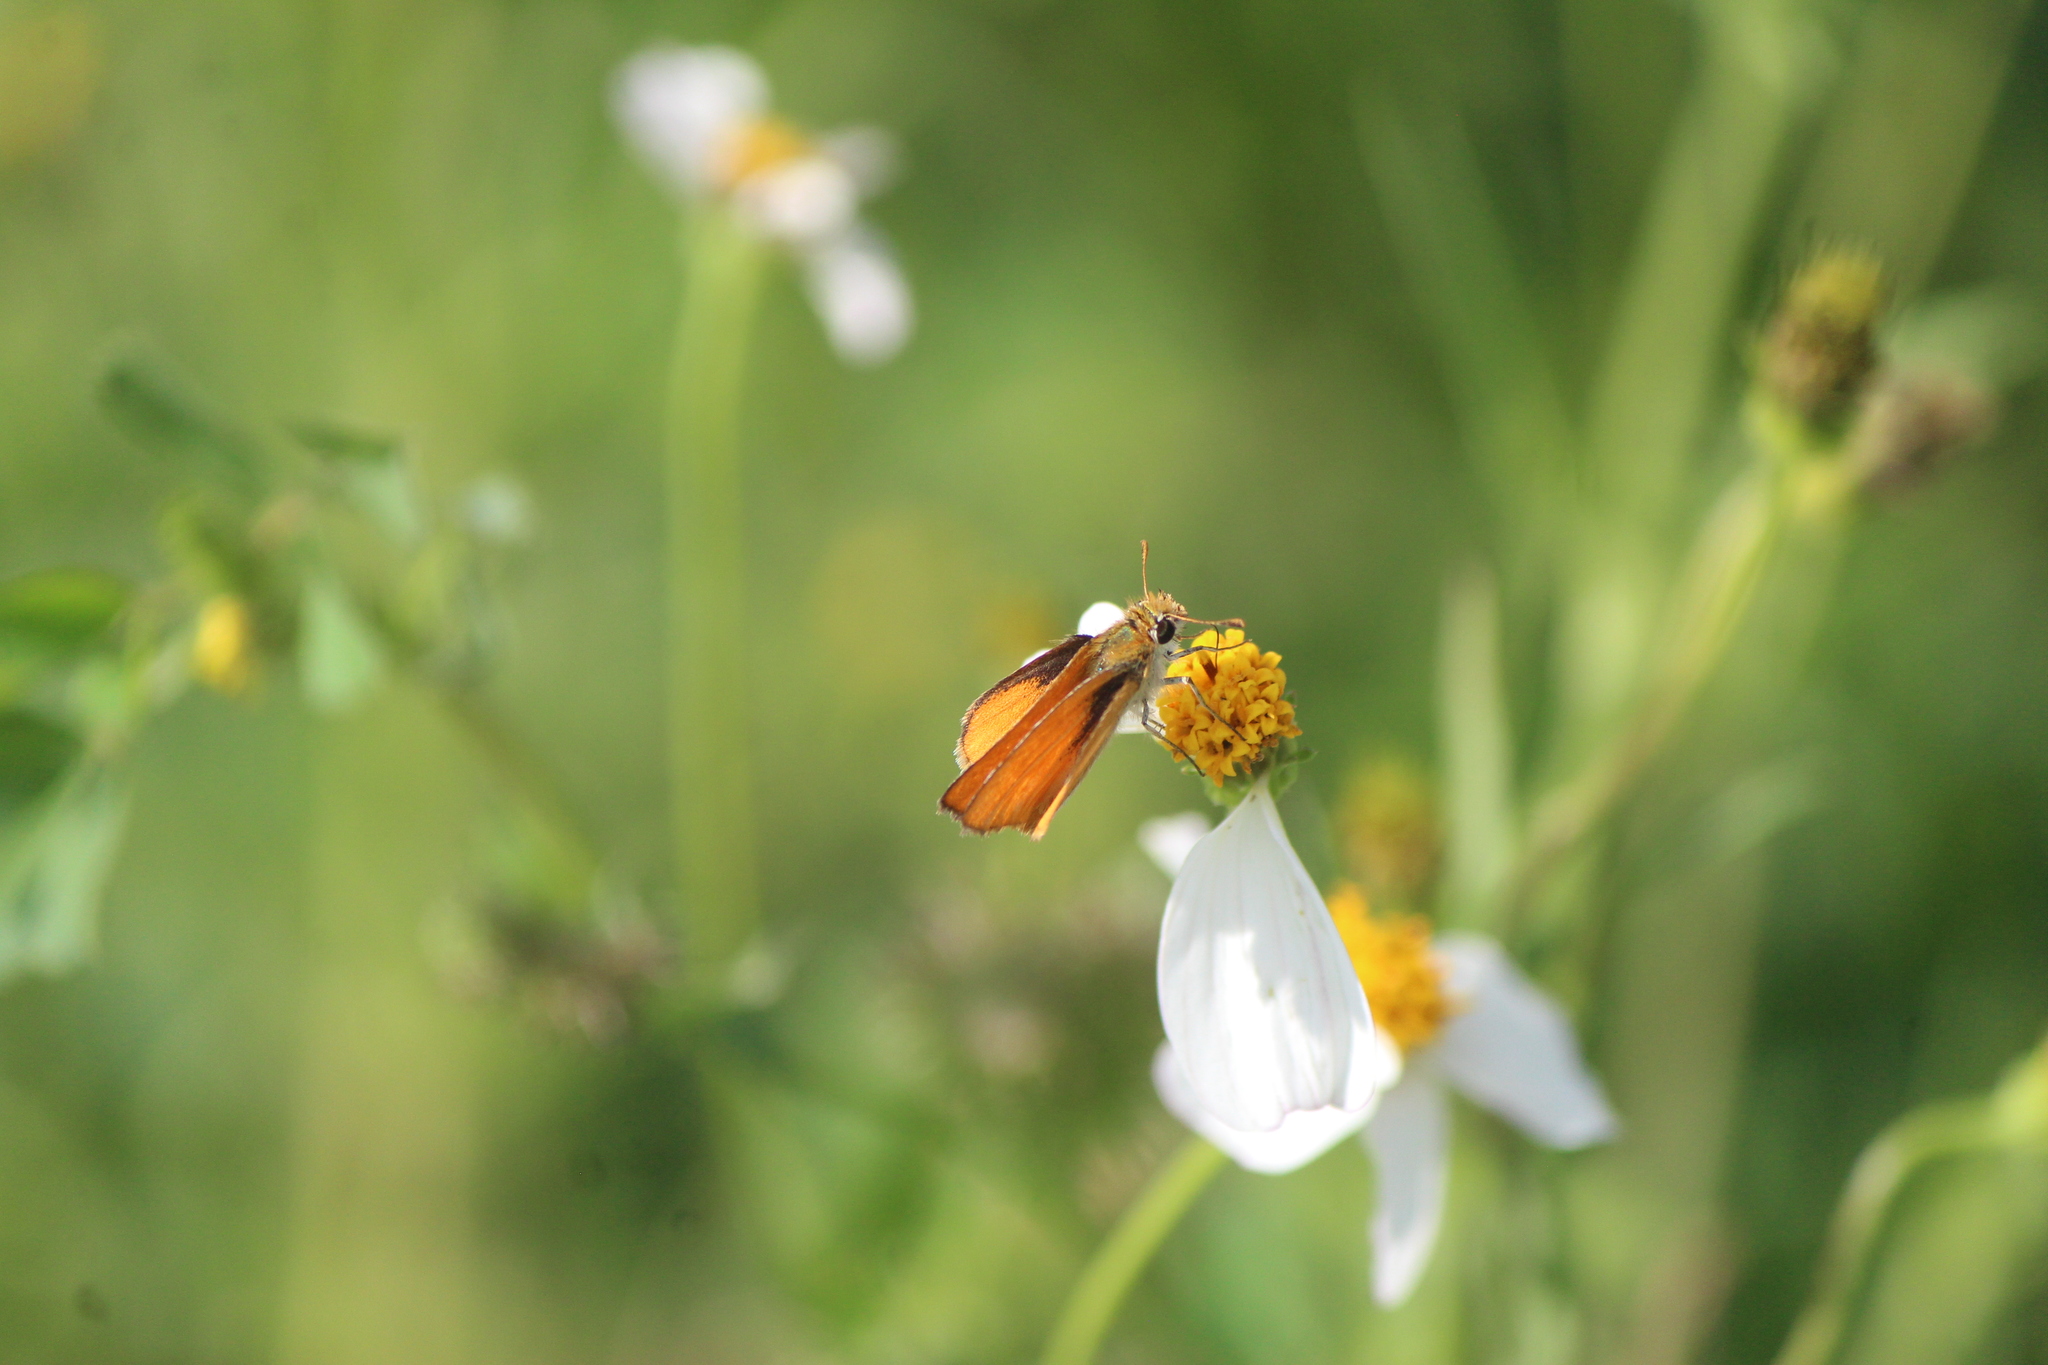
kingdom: Animalia
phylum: Arthropoda
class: Insecta
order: Lepidoptera
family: Hesperiidae
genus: Copaeodes
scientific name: Copaeodes minima
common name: Southern skipperling
